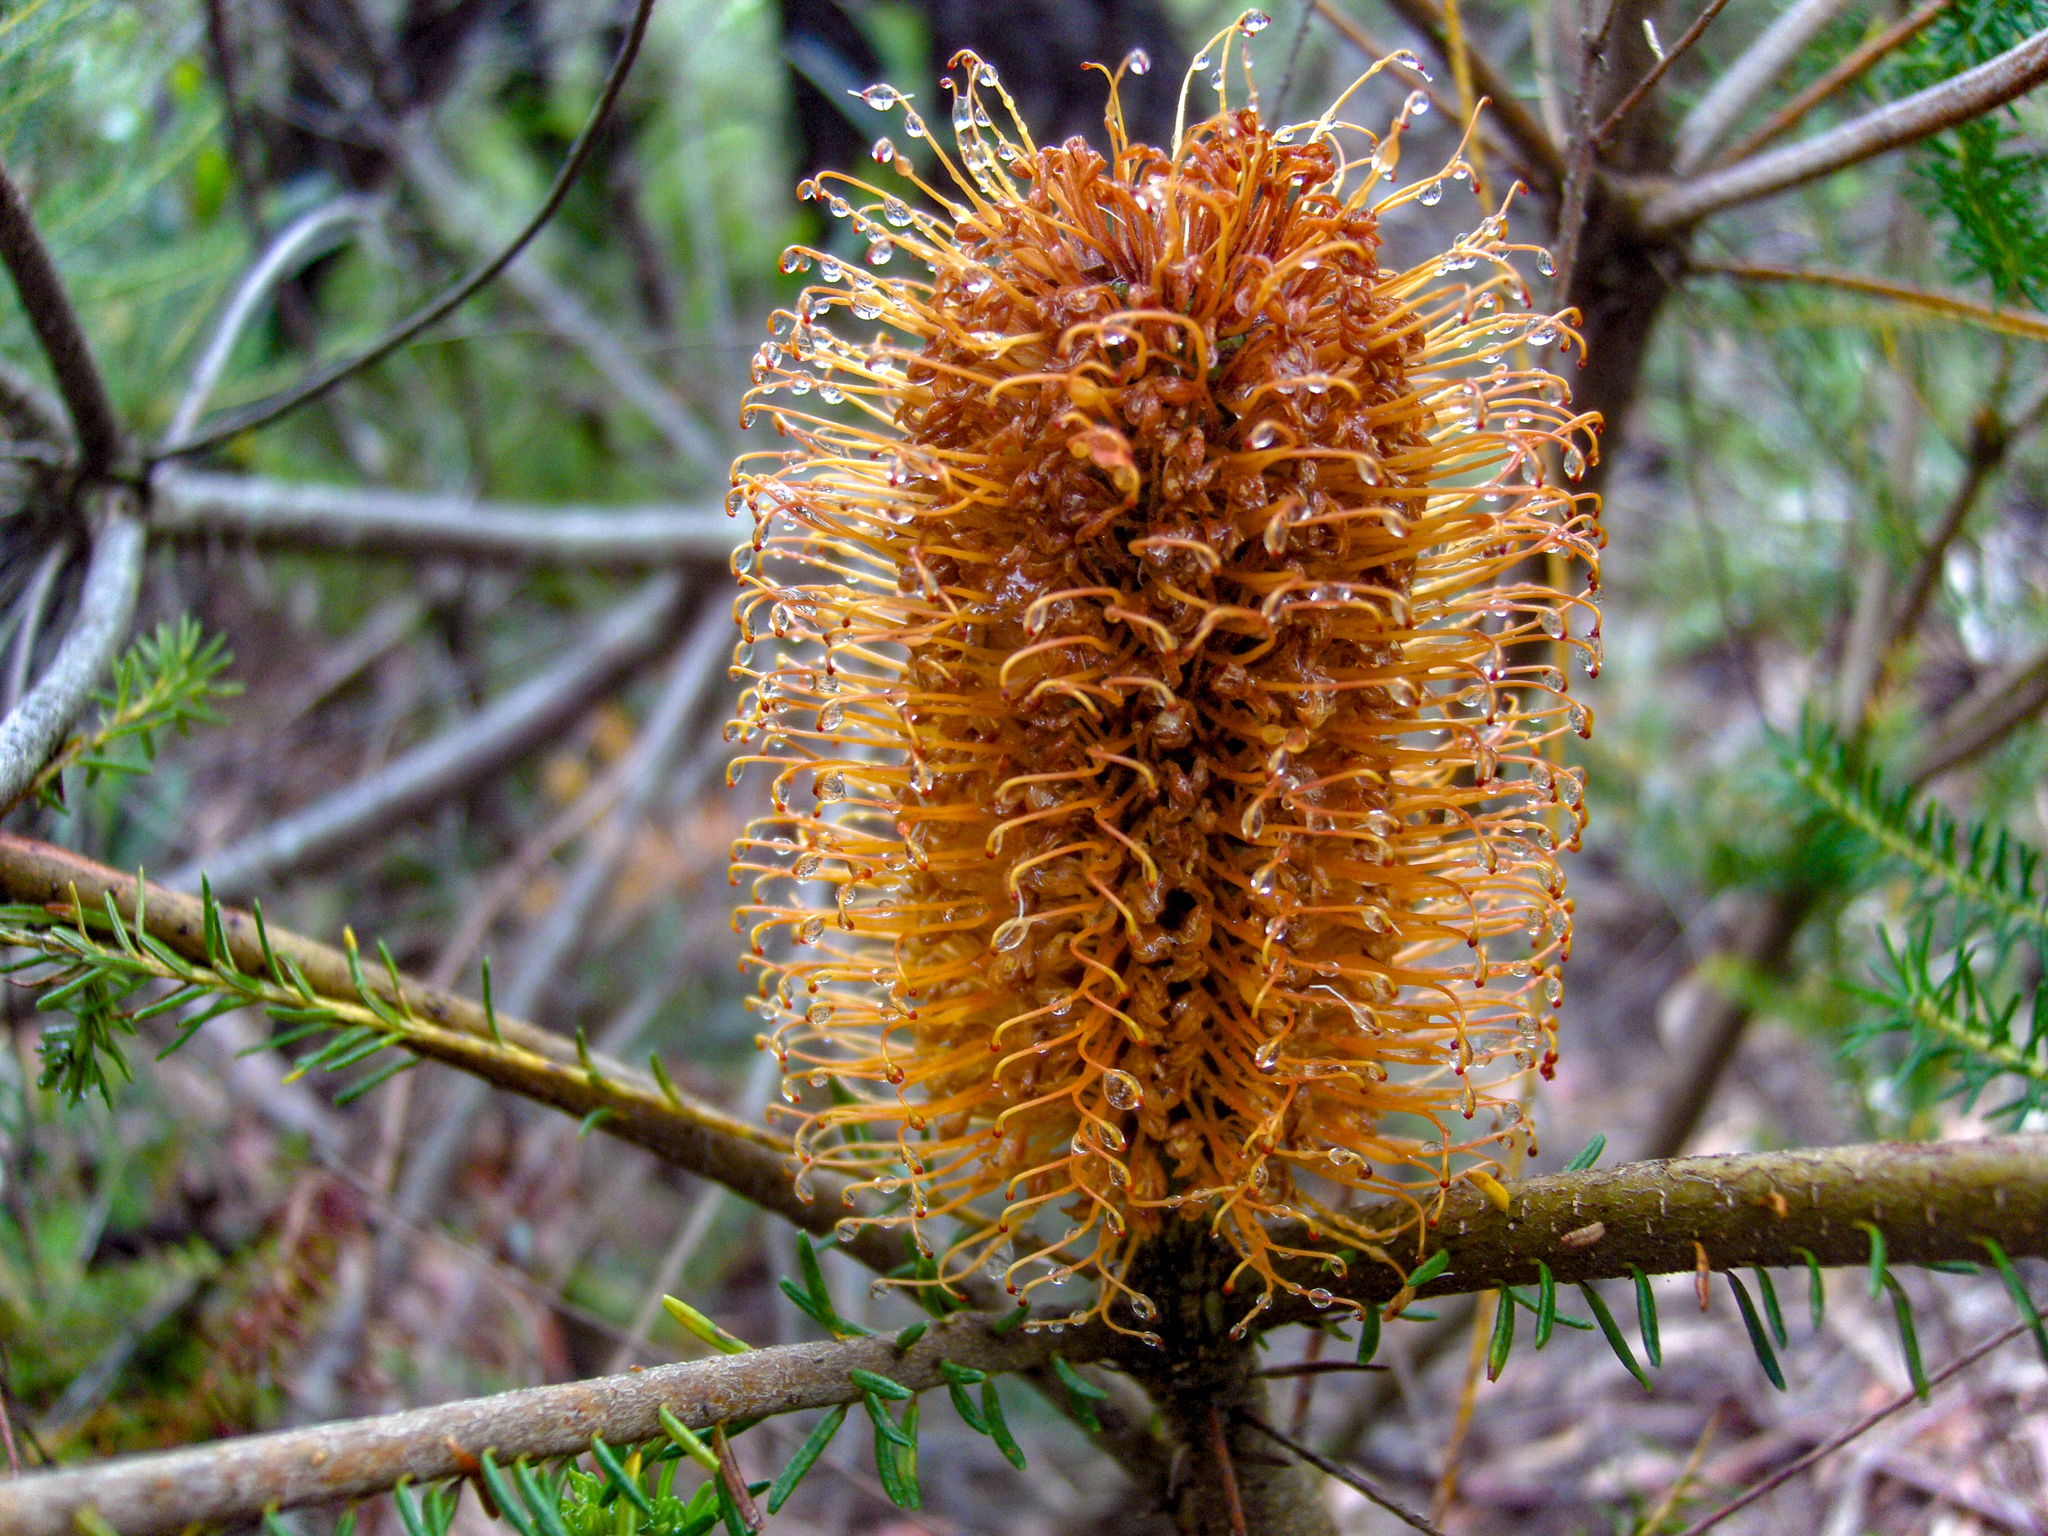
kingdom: Plantae
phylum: Tracheophyta
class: Magnoliopsida
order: Proteales
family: Proteaceae
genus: Banksia
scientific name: Banksia ericifolia
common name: Heath-leaf banksia
